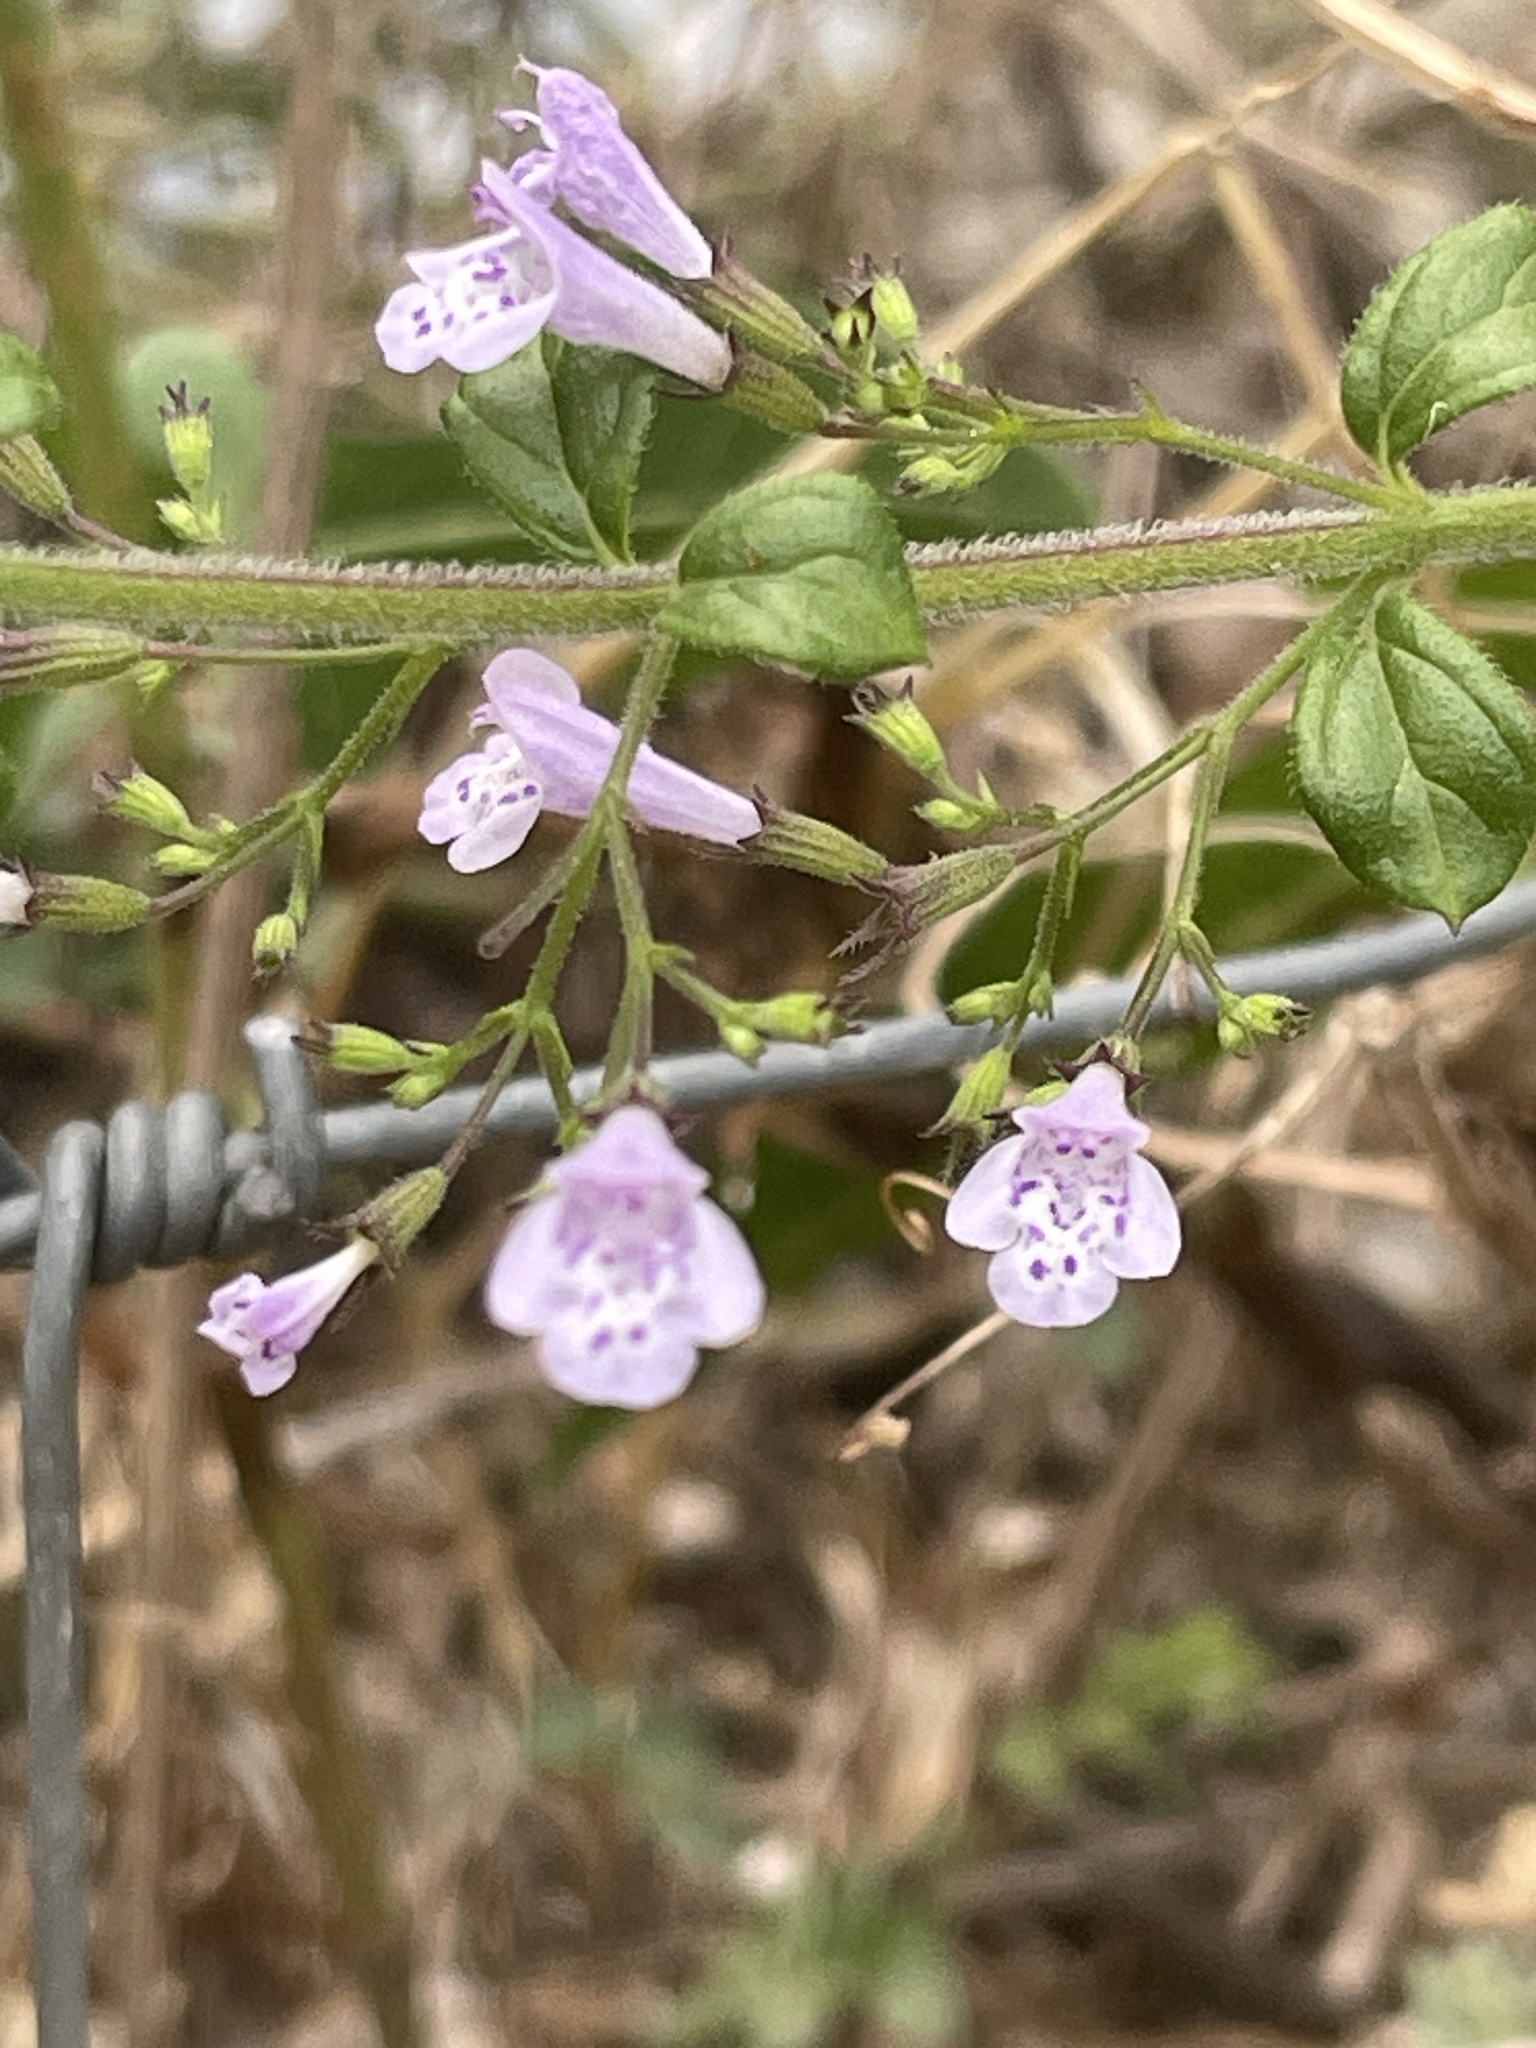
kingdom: Plantae
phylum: Tracheophyta
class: Magnoliopsida
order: Lamiales
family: Lamiaceae
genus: Clinopodium
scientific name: Clinopodium nepeta
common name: Lesser calamint
